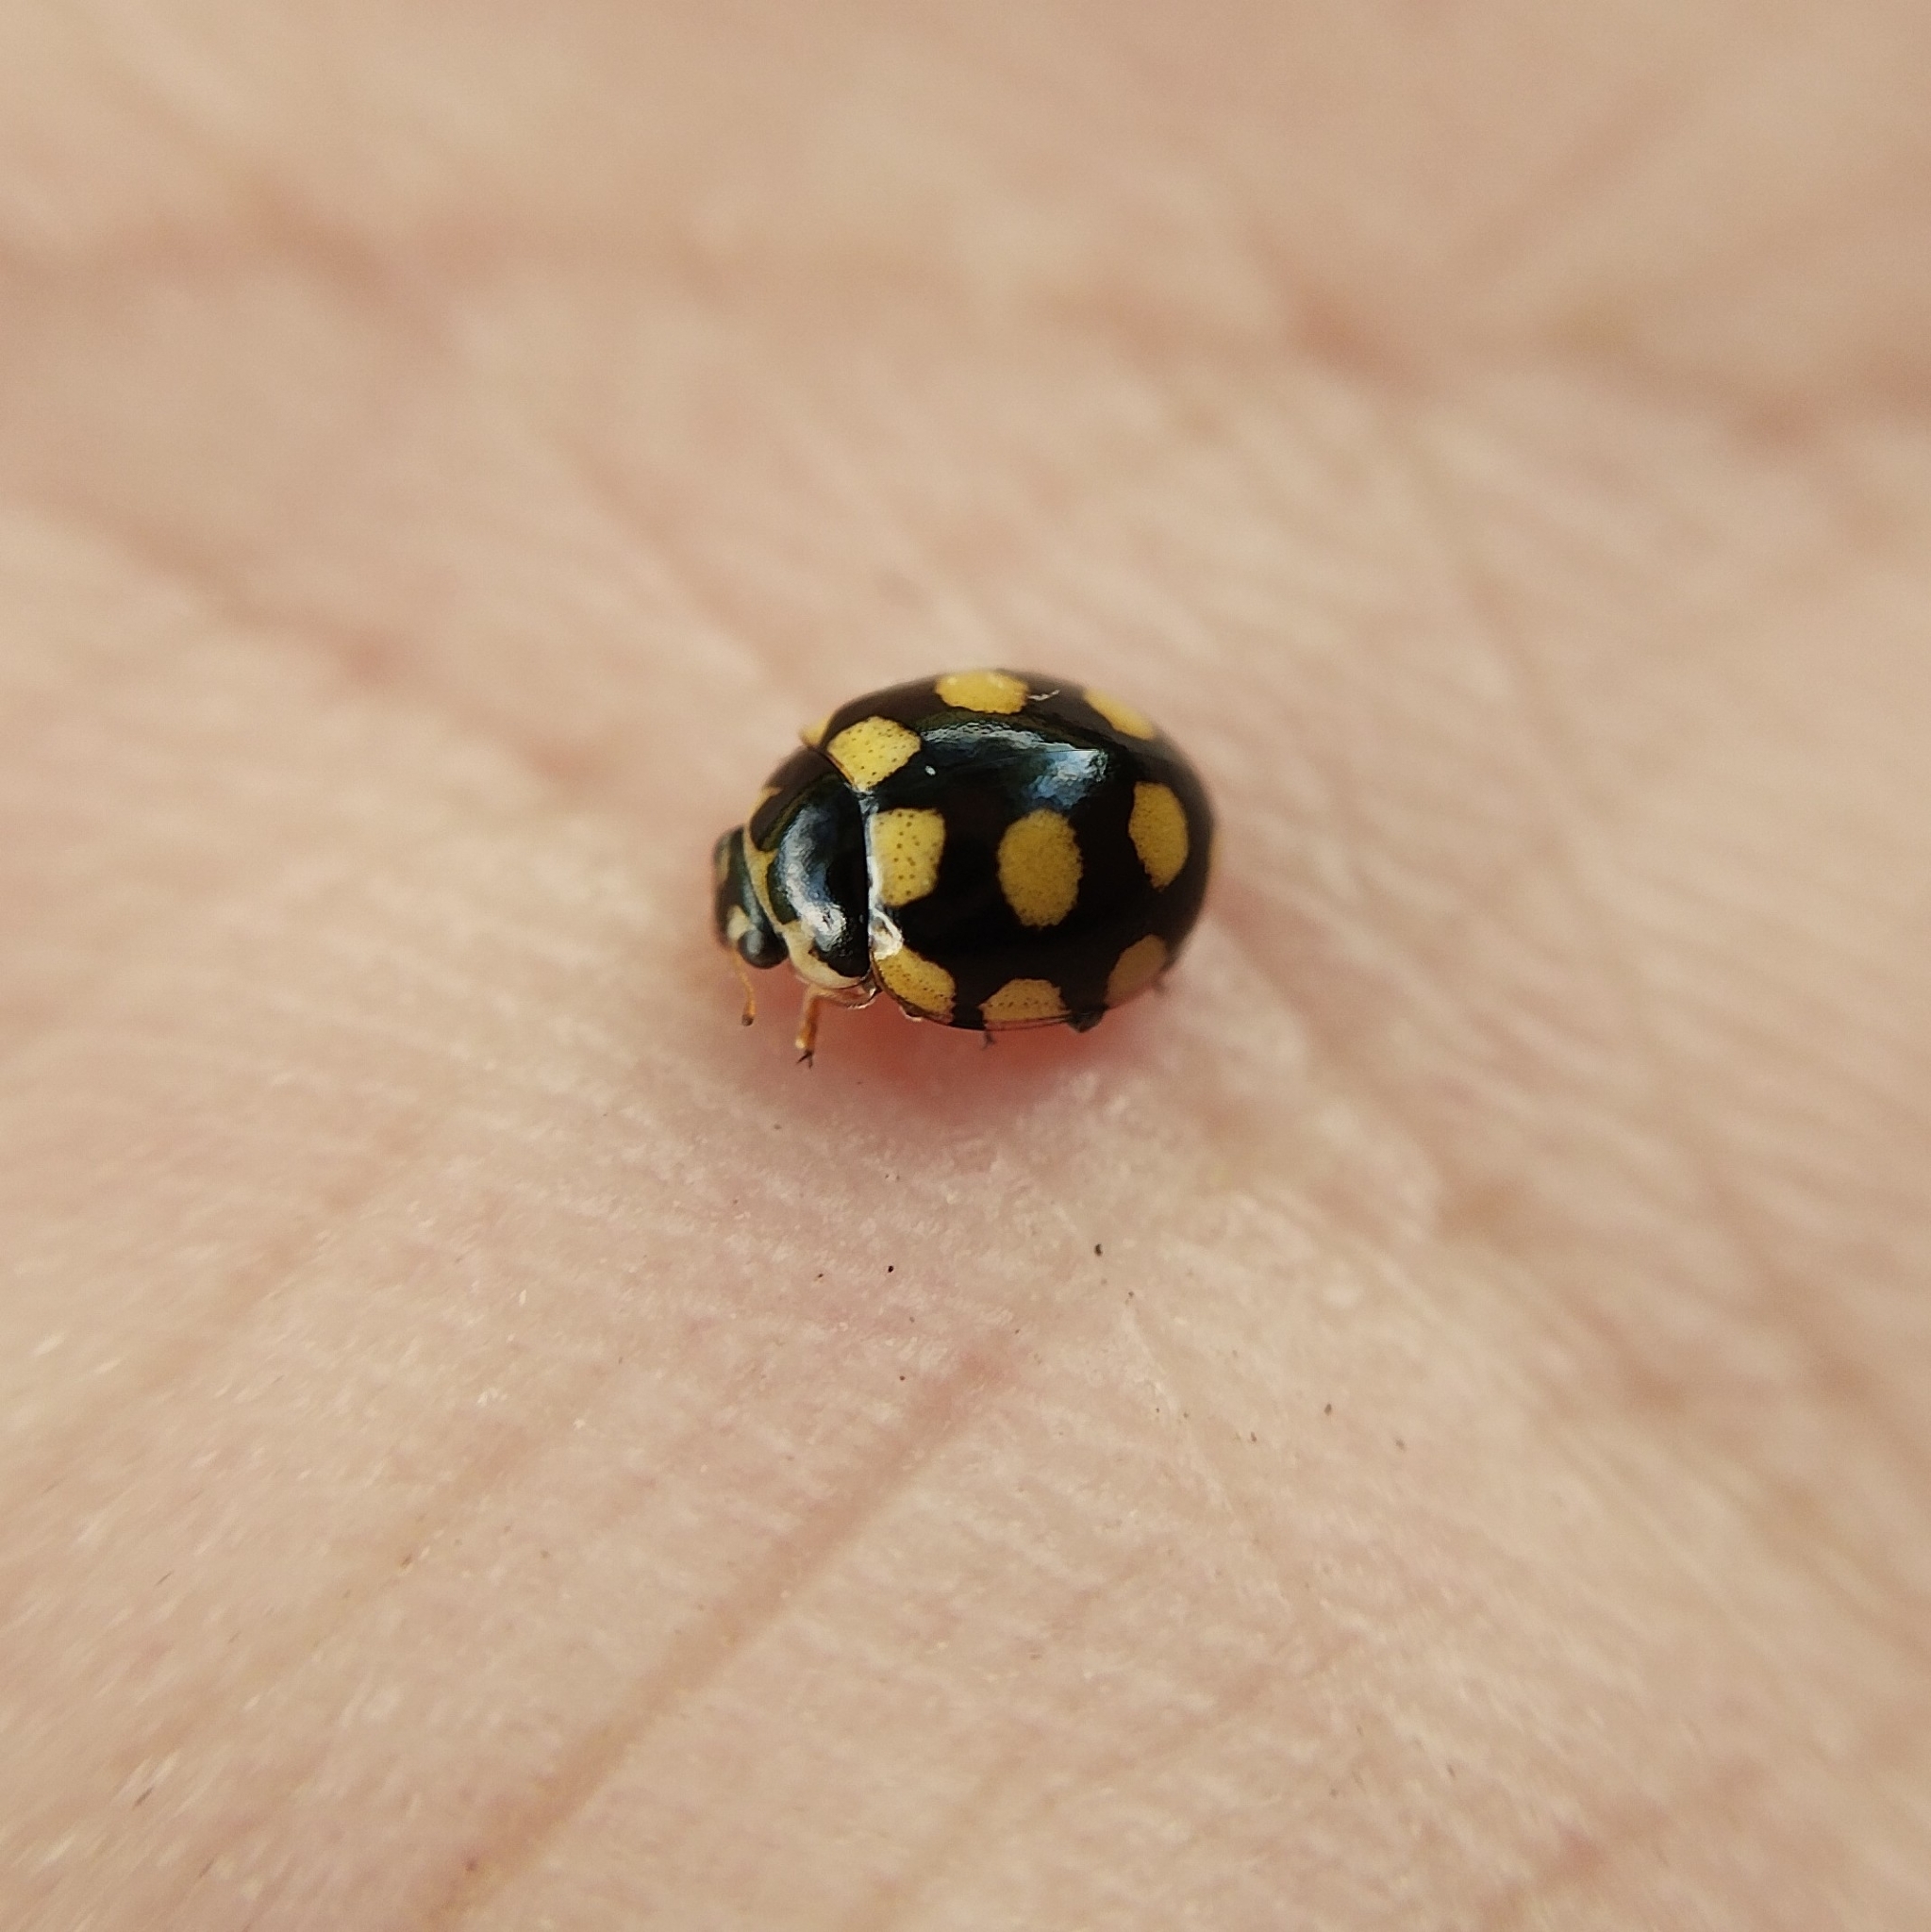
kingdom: Animalia
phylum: Arthropoda
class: Insecta
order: Coleoptera
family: Coccinellidae
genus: Coccinula
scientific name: Coccinula quatuordecimpustulata
